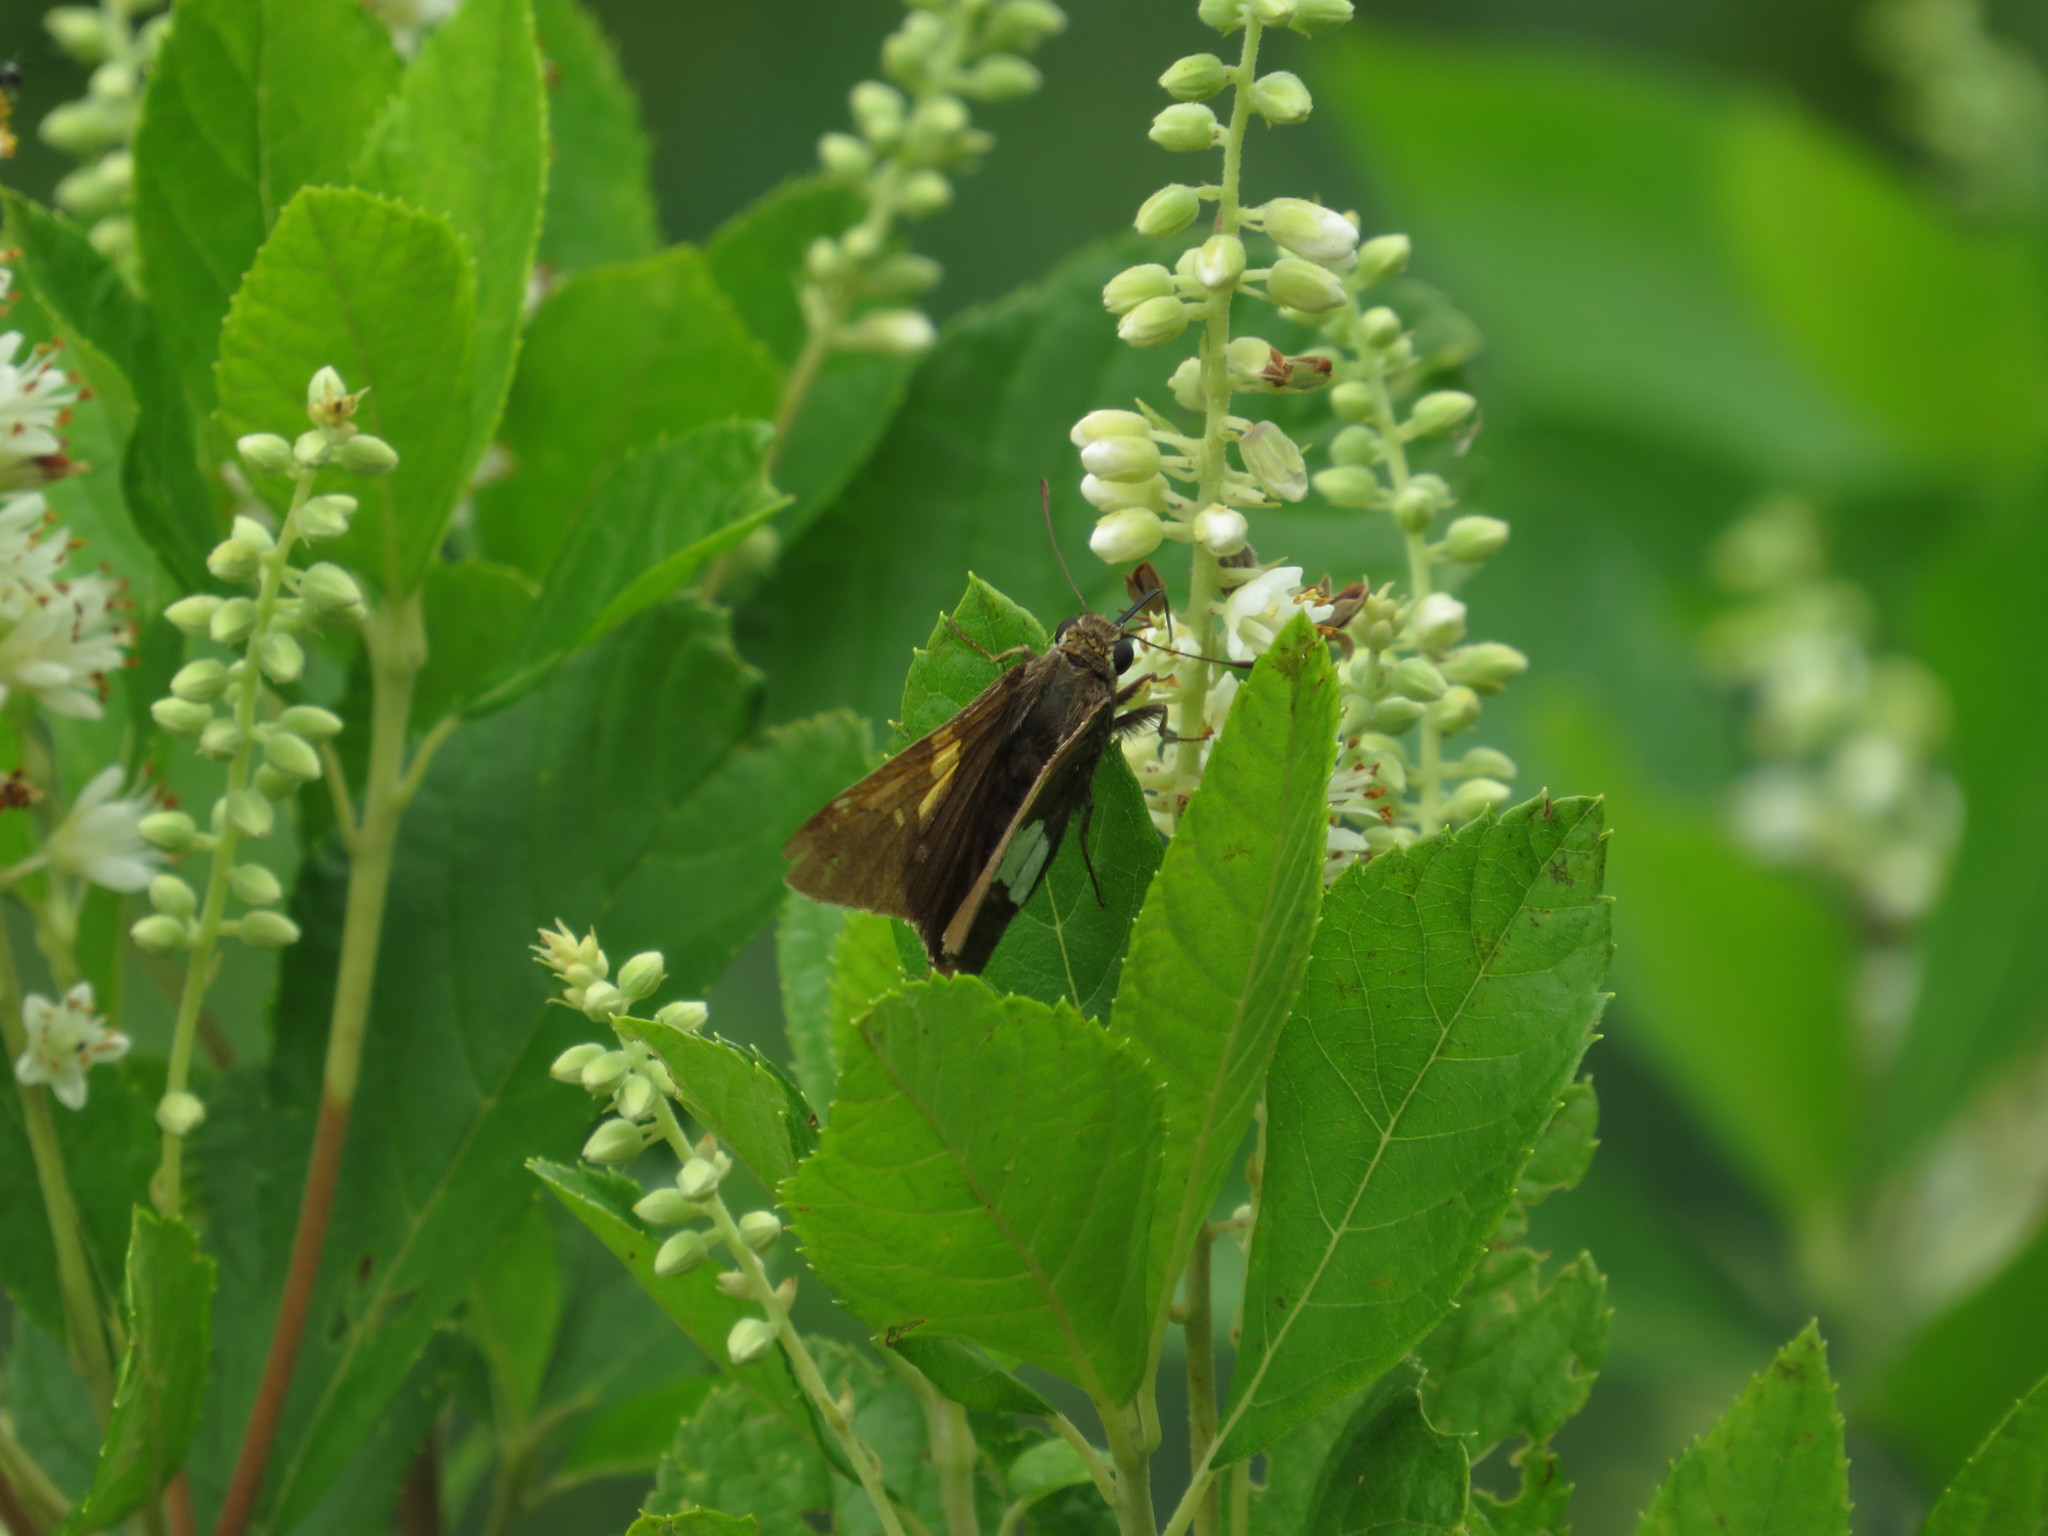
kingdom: Animalia
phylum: Arthropoda
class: Insecta
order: Lepidoptera
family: Hesperiidae
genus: Epargyreus
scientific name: Epargyreus clarus
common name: Silver-spotted skipper
